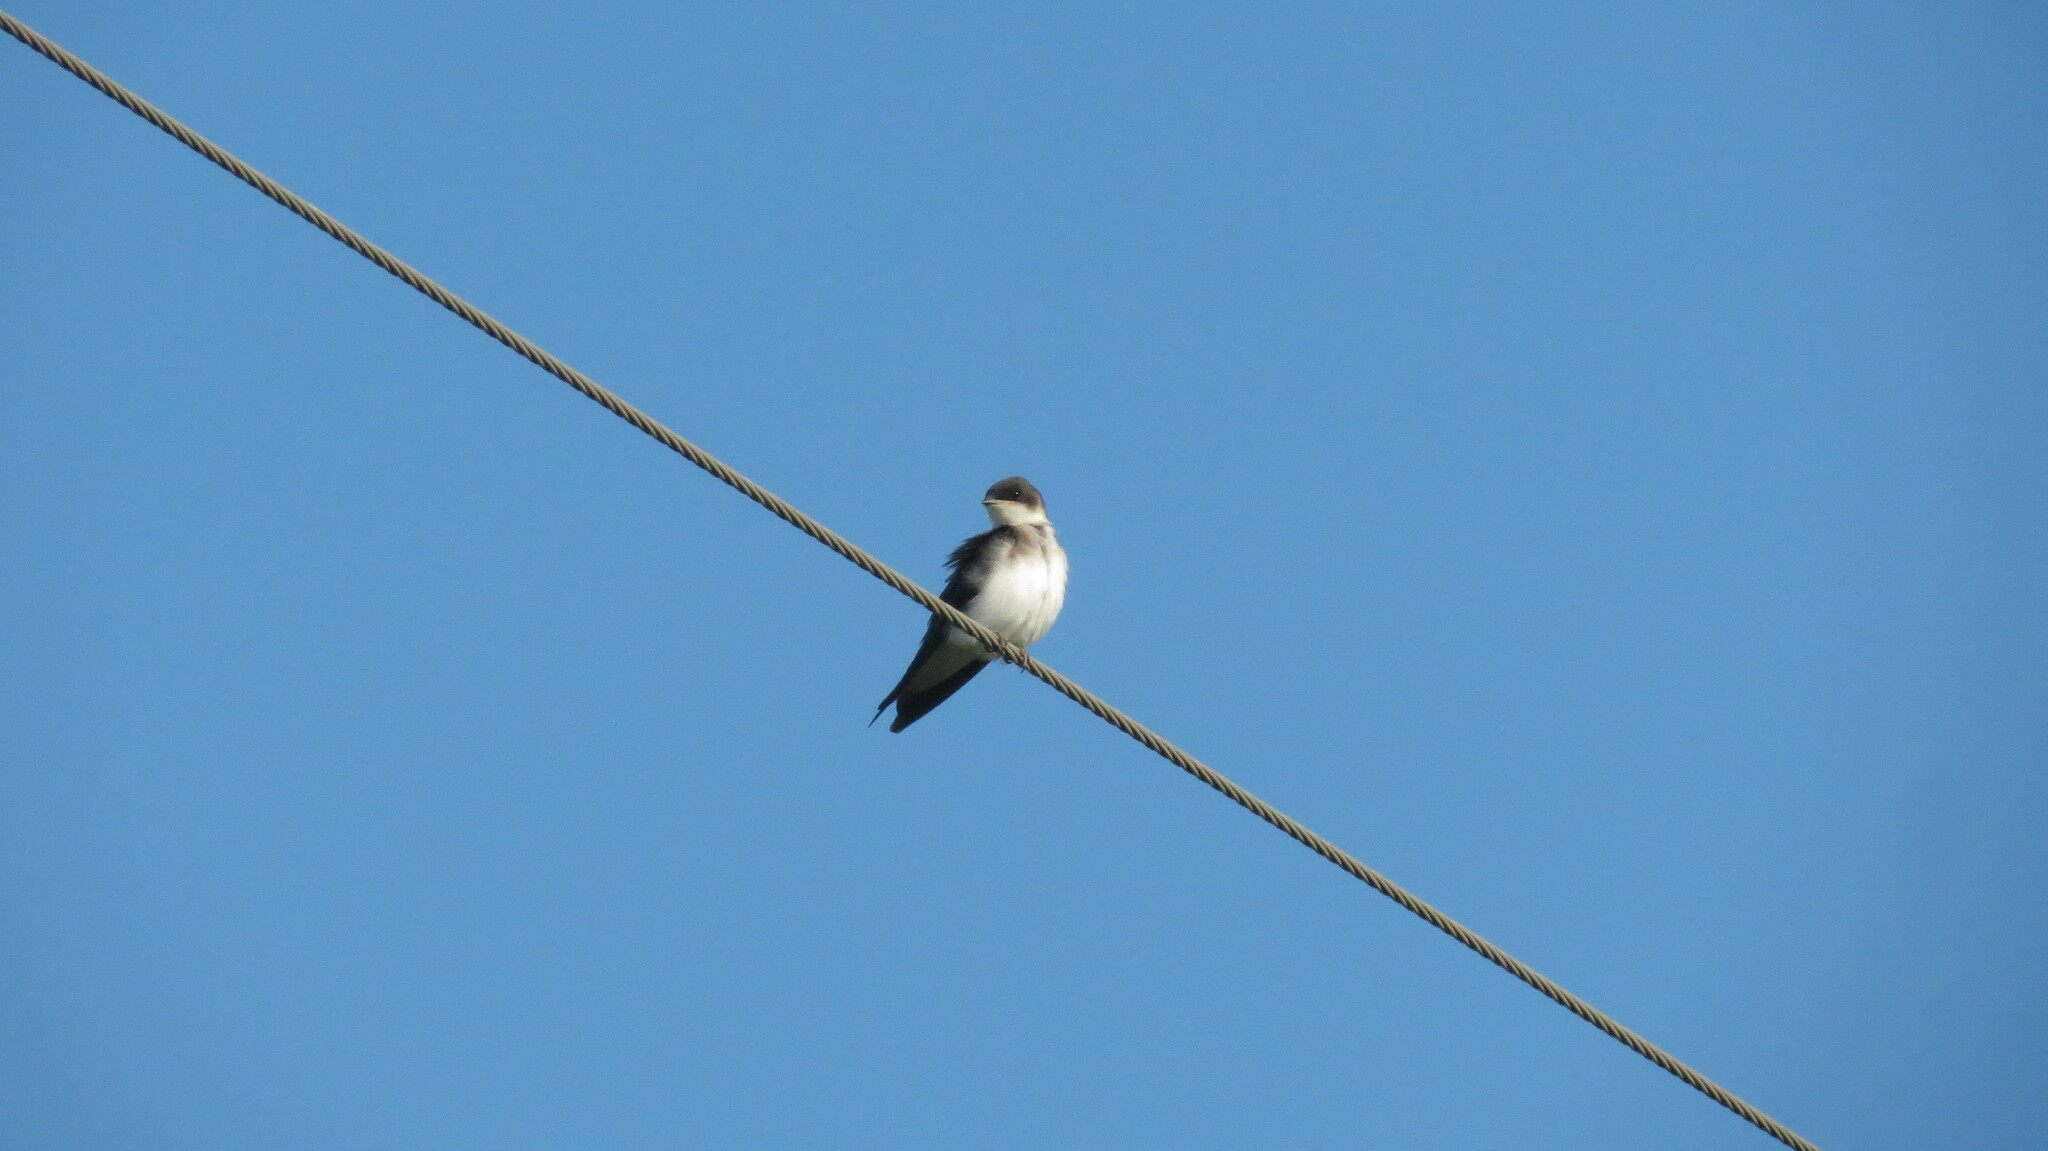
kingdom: Animalia
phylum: Chordata
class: Aves
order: Passeriformes
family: Hirundinidae
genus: Riparia
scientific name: Riparia riparia
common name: Sand martin
